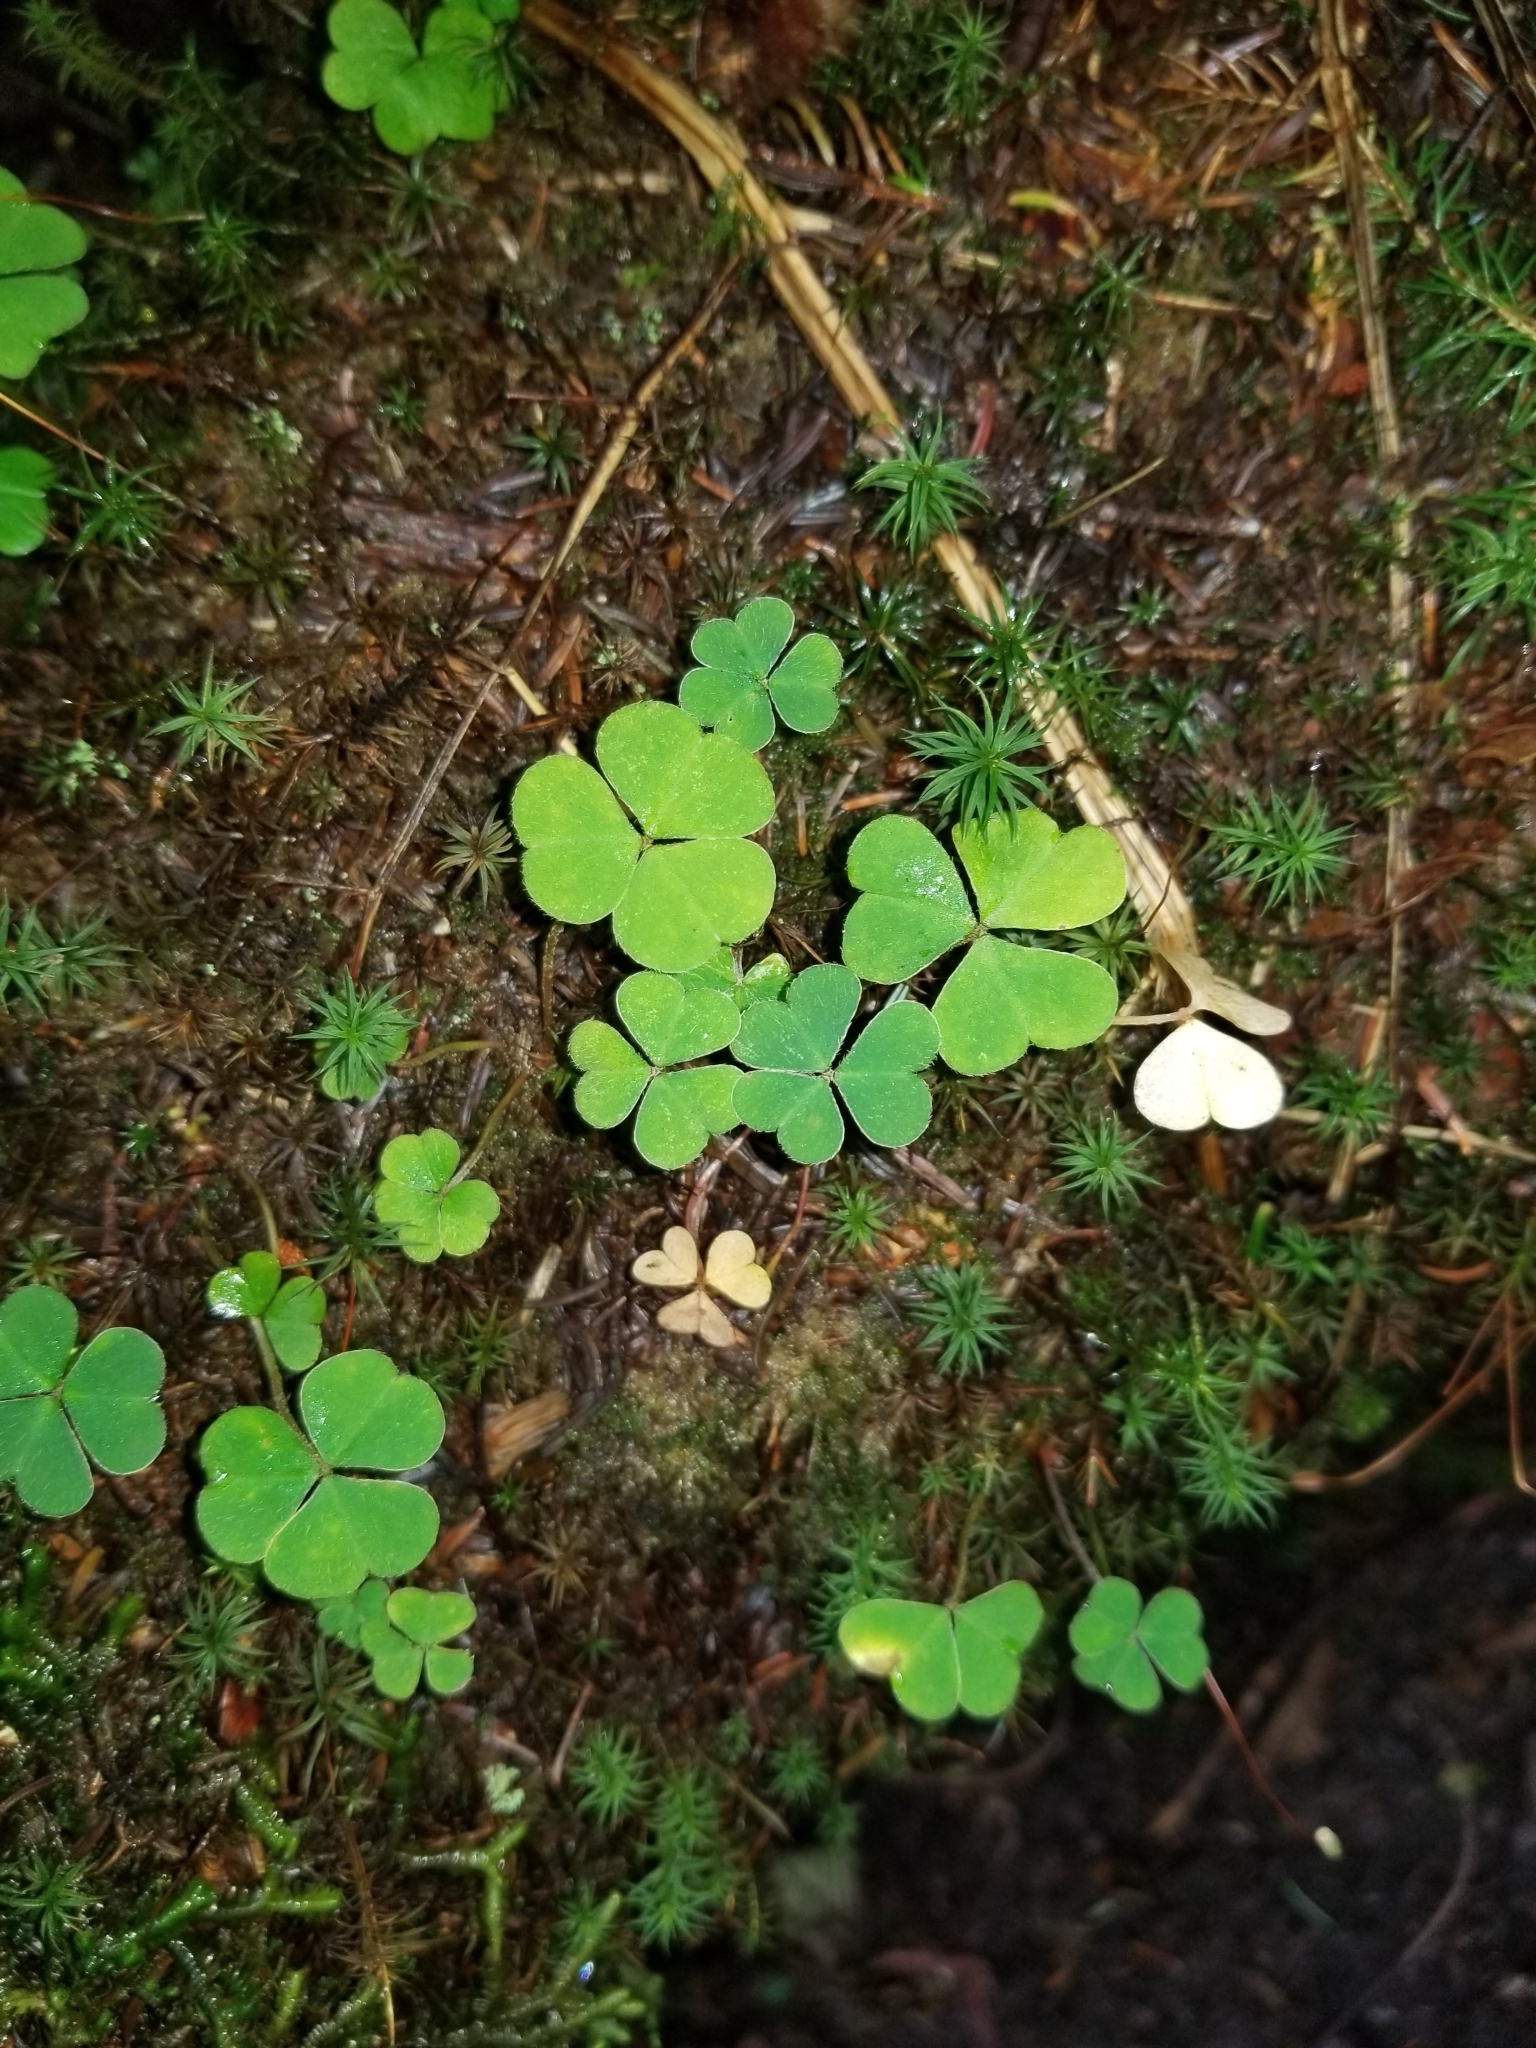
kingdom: Plantae
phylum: Tracheophyta
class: Magnoliopsida
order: Oxalidales
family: Oxalidaceae
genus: Oxalis
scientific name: Oxalis montana
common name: American wood-sorrel
